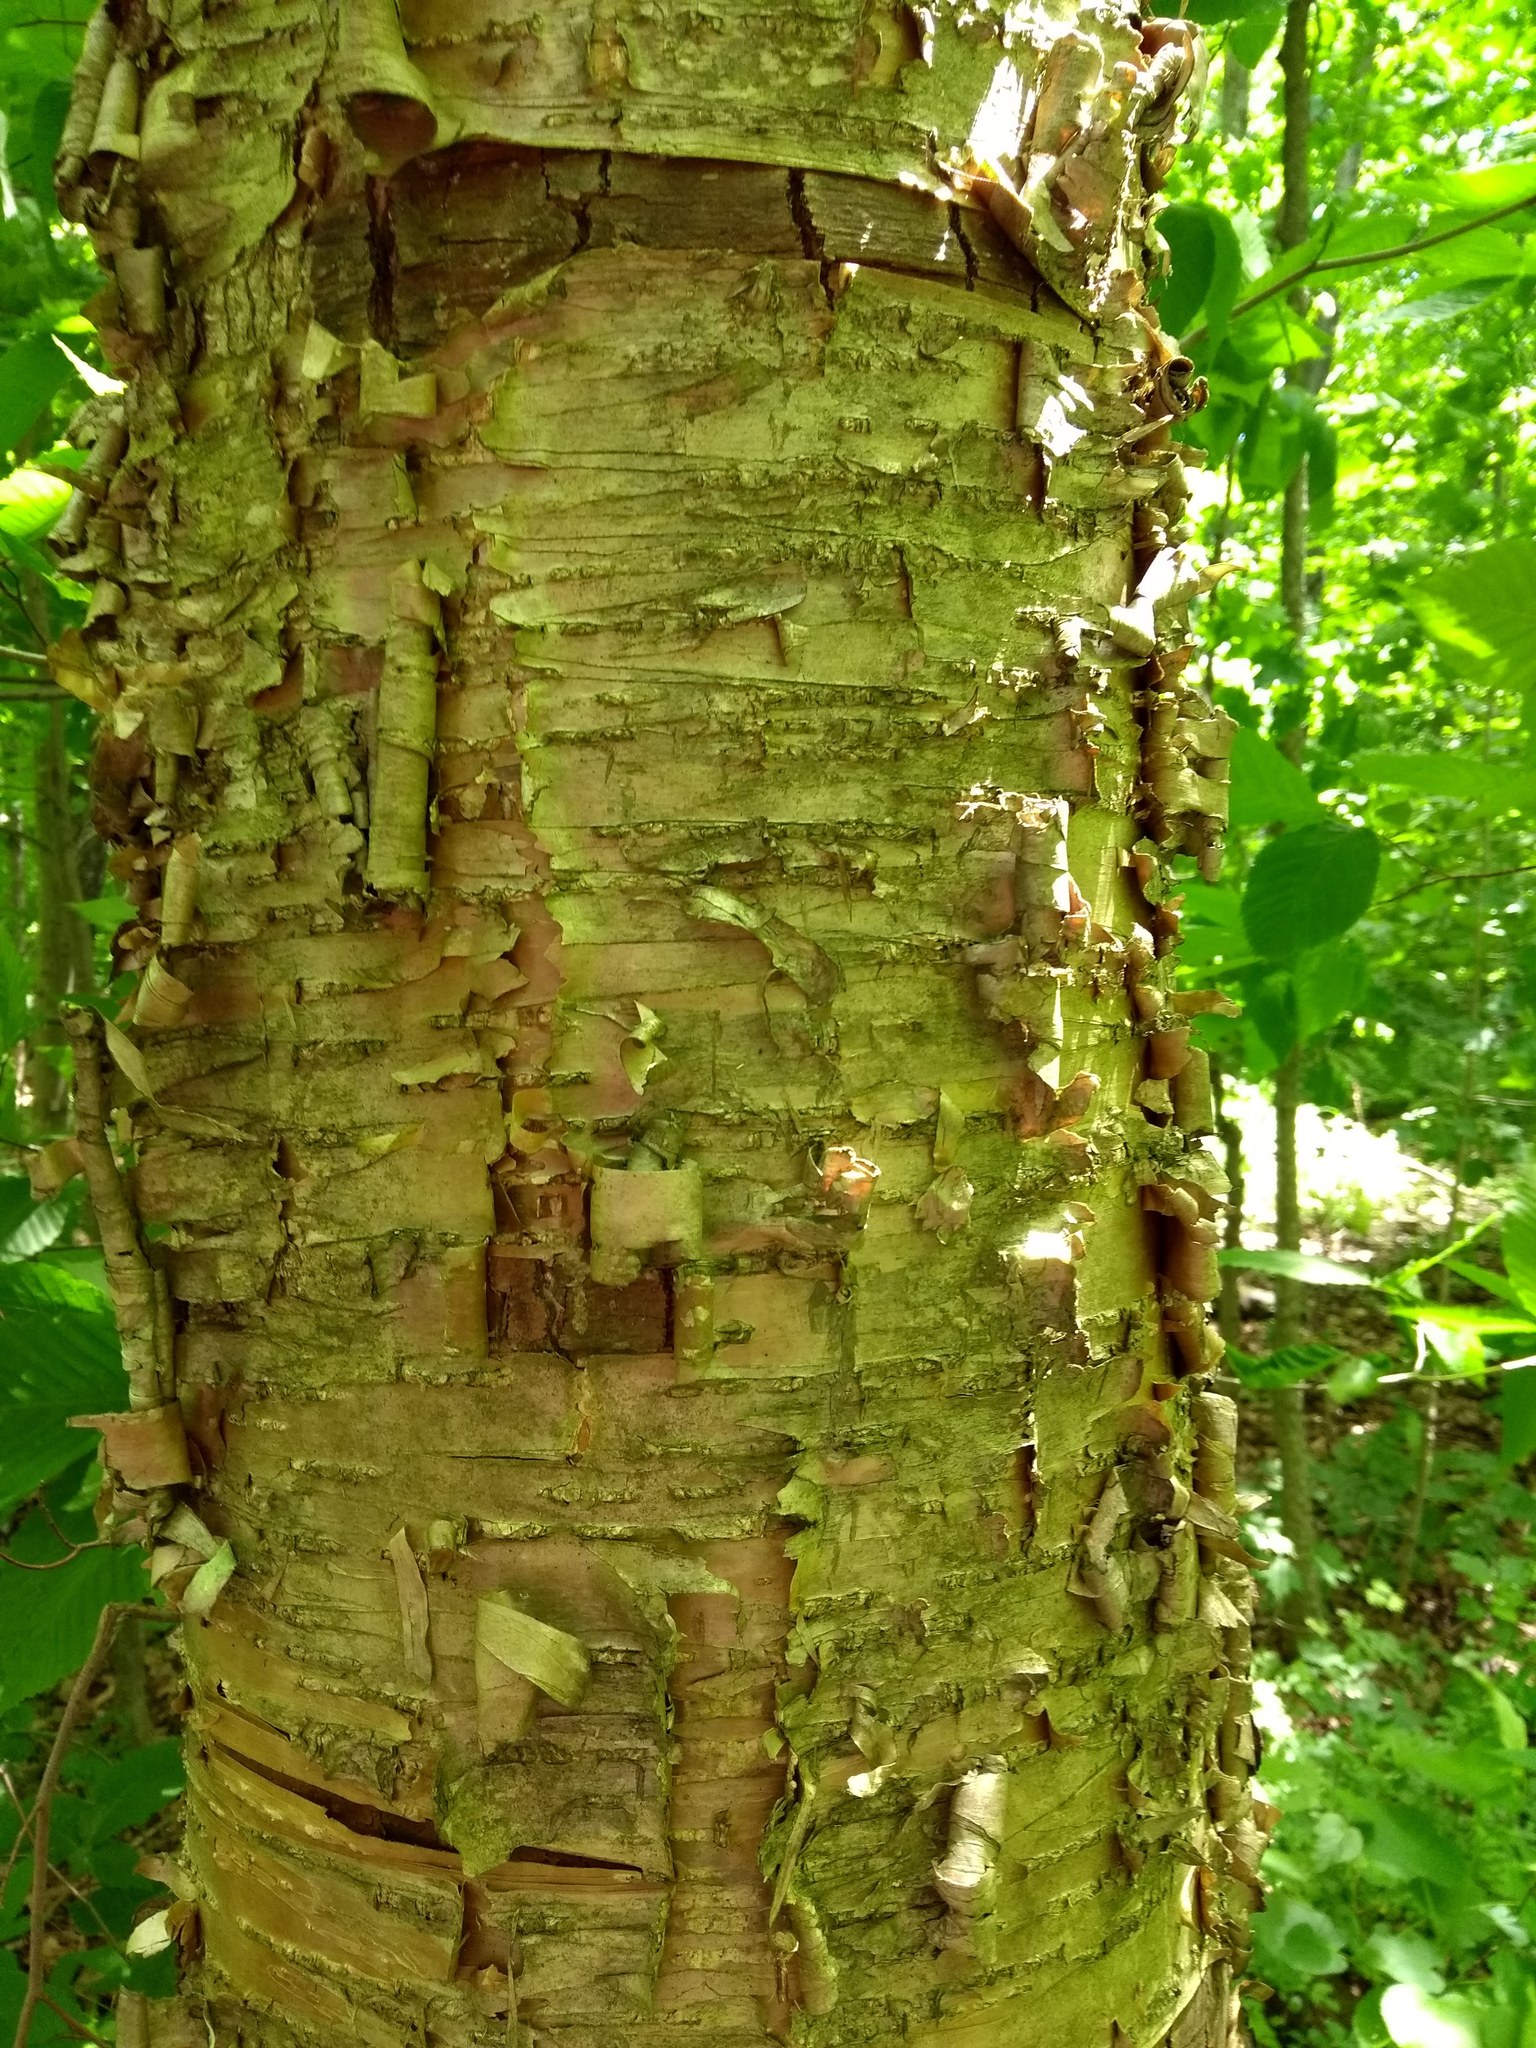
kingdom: Plantae
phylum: Tracheophyta
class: Magnoliopsida
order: Fagales
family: Betulaceae
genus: Betula
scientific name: Betula alleghaniensis
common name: Yellow birch
